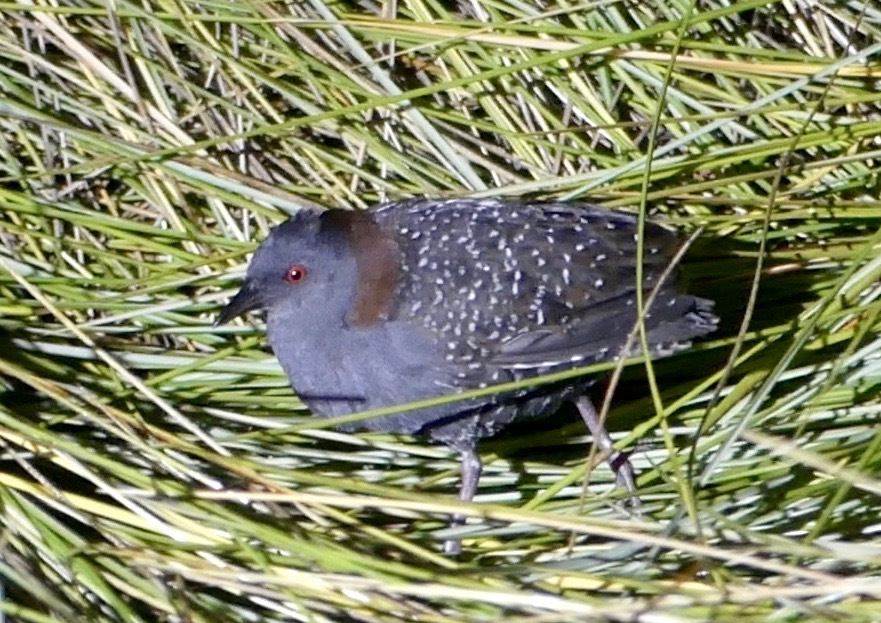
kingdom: Animalia
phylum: Chordata
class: Aves
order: Gruiformes
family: Rallidae
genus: Laterallus
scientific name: Laterallus jamaicensis
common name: Black rail
